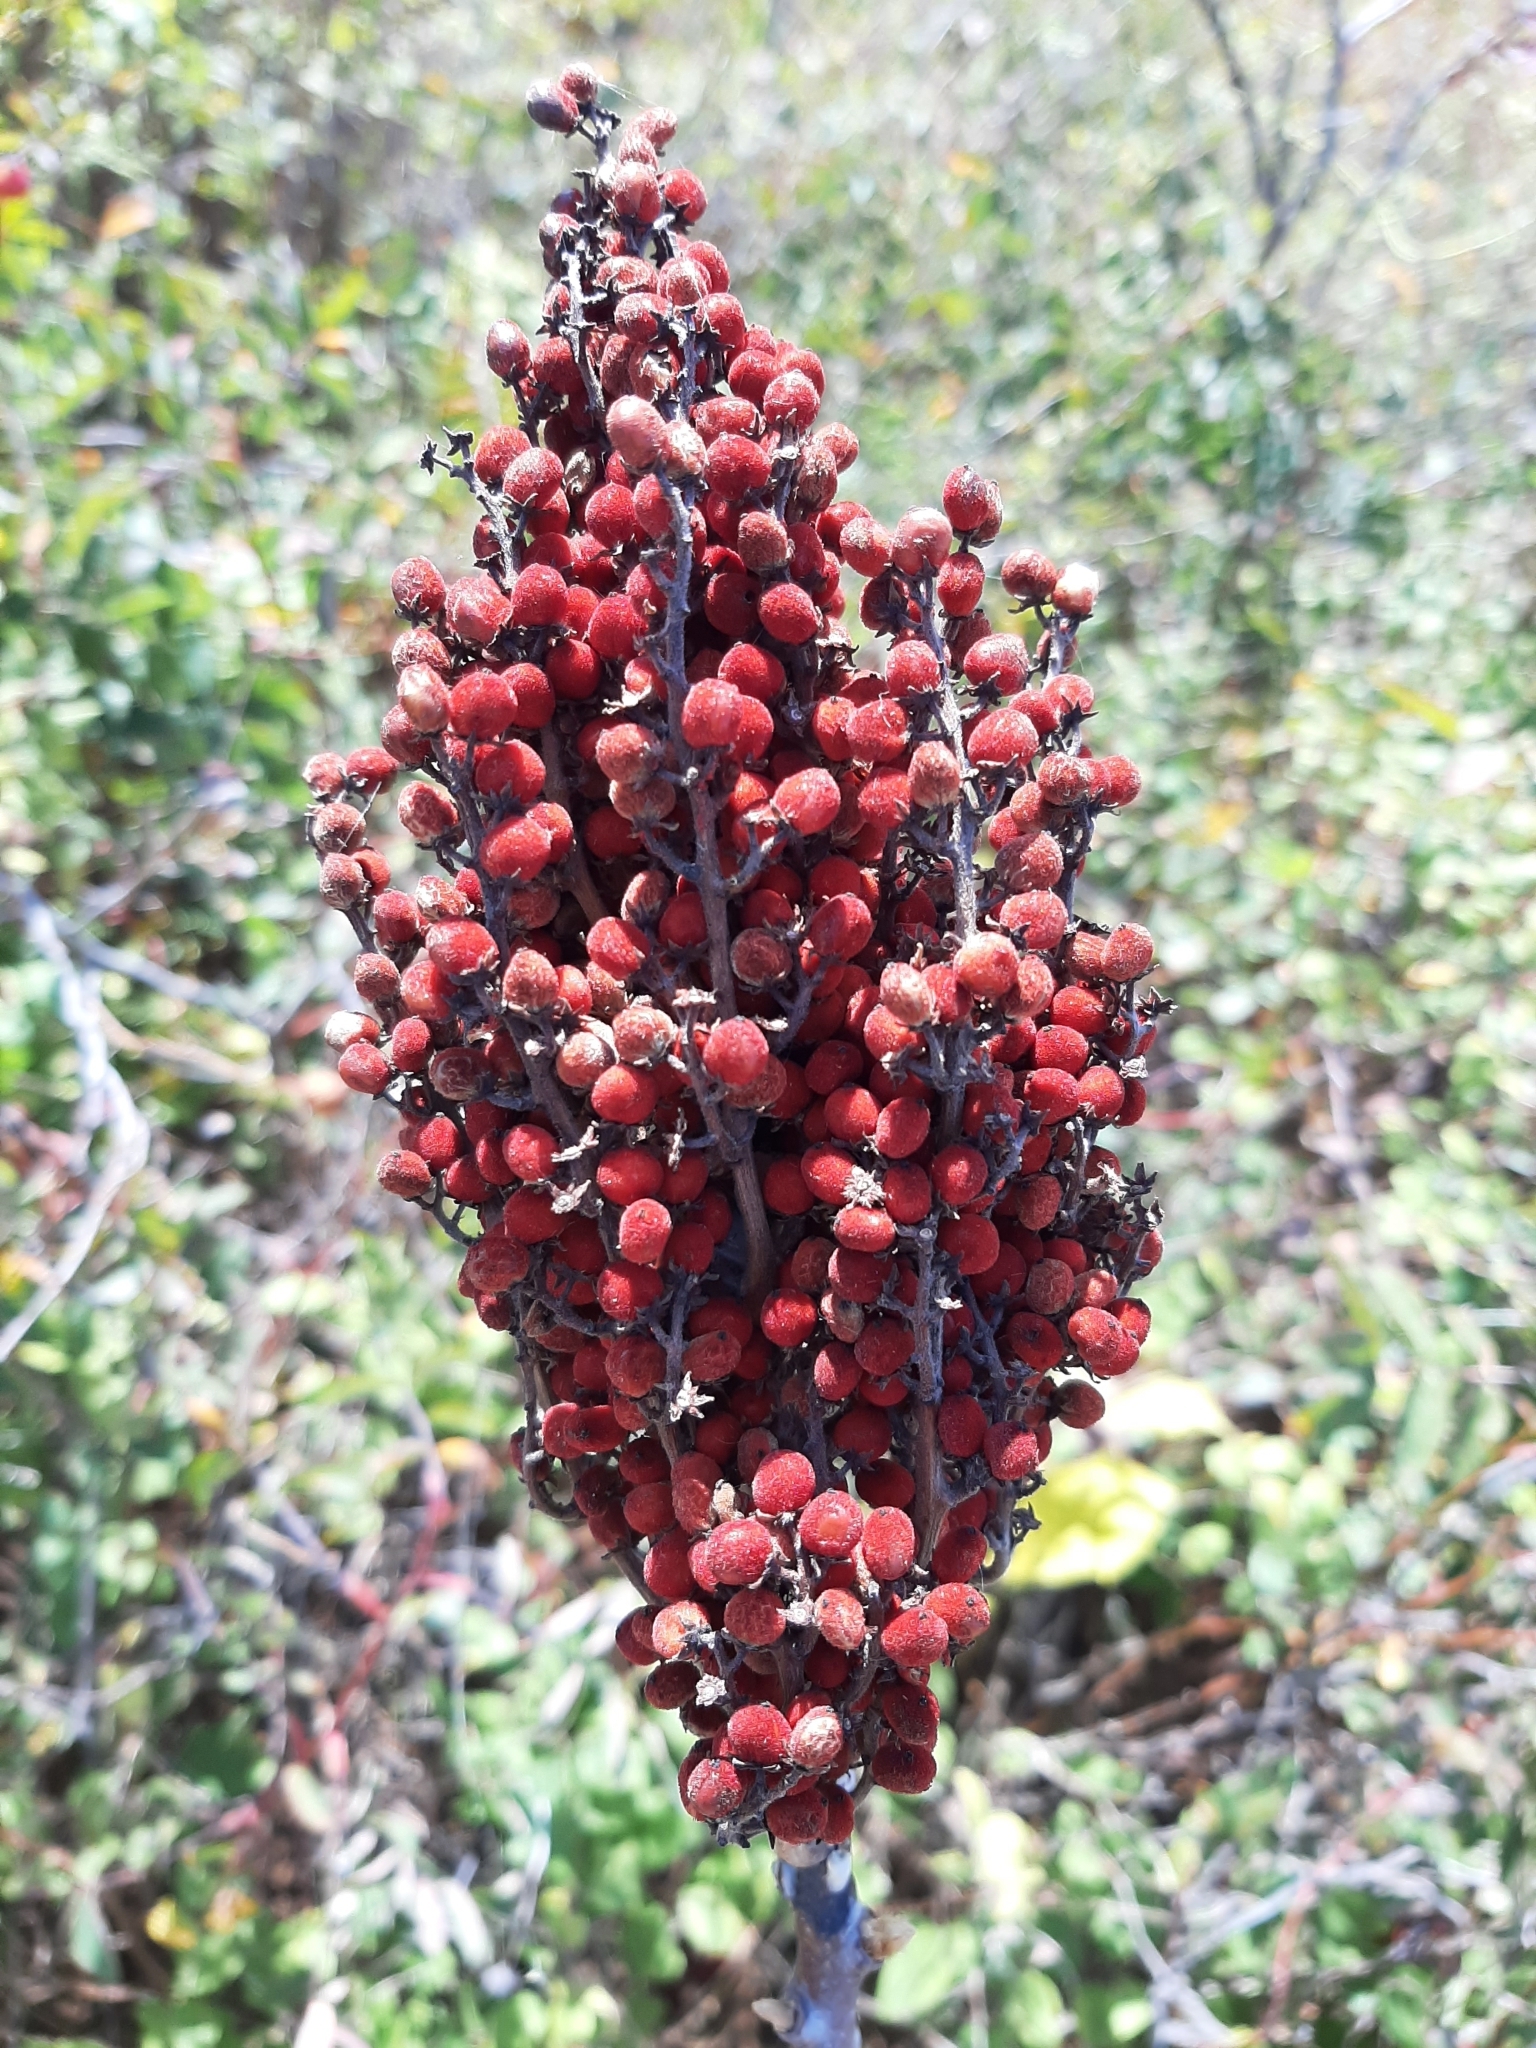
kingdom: Plantae
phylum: Tracheophyta
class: Magnoliopsida
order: Sapindales
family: Anacardiaceae
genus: Rhus
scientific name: Rhus glabra
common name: Scarlet sumac
